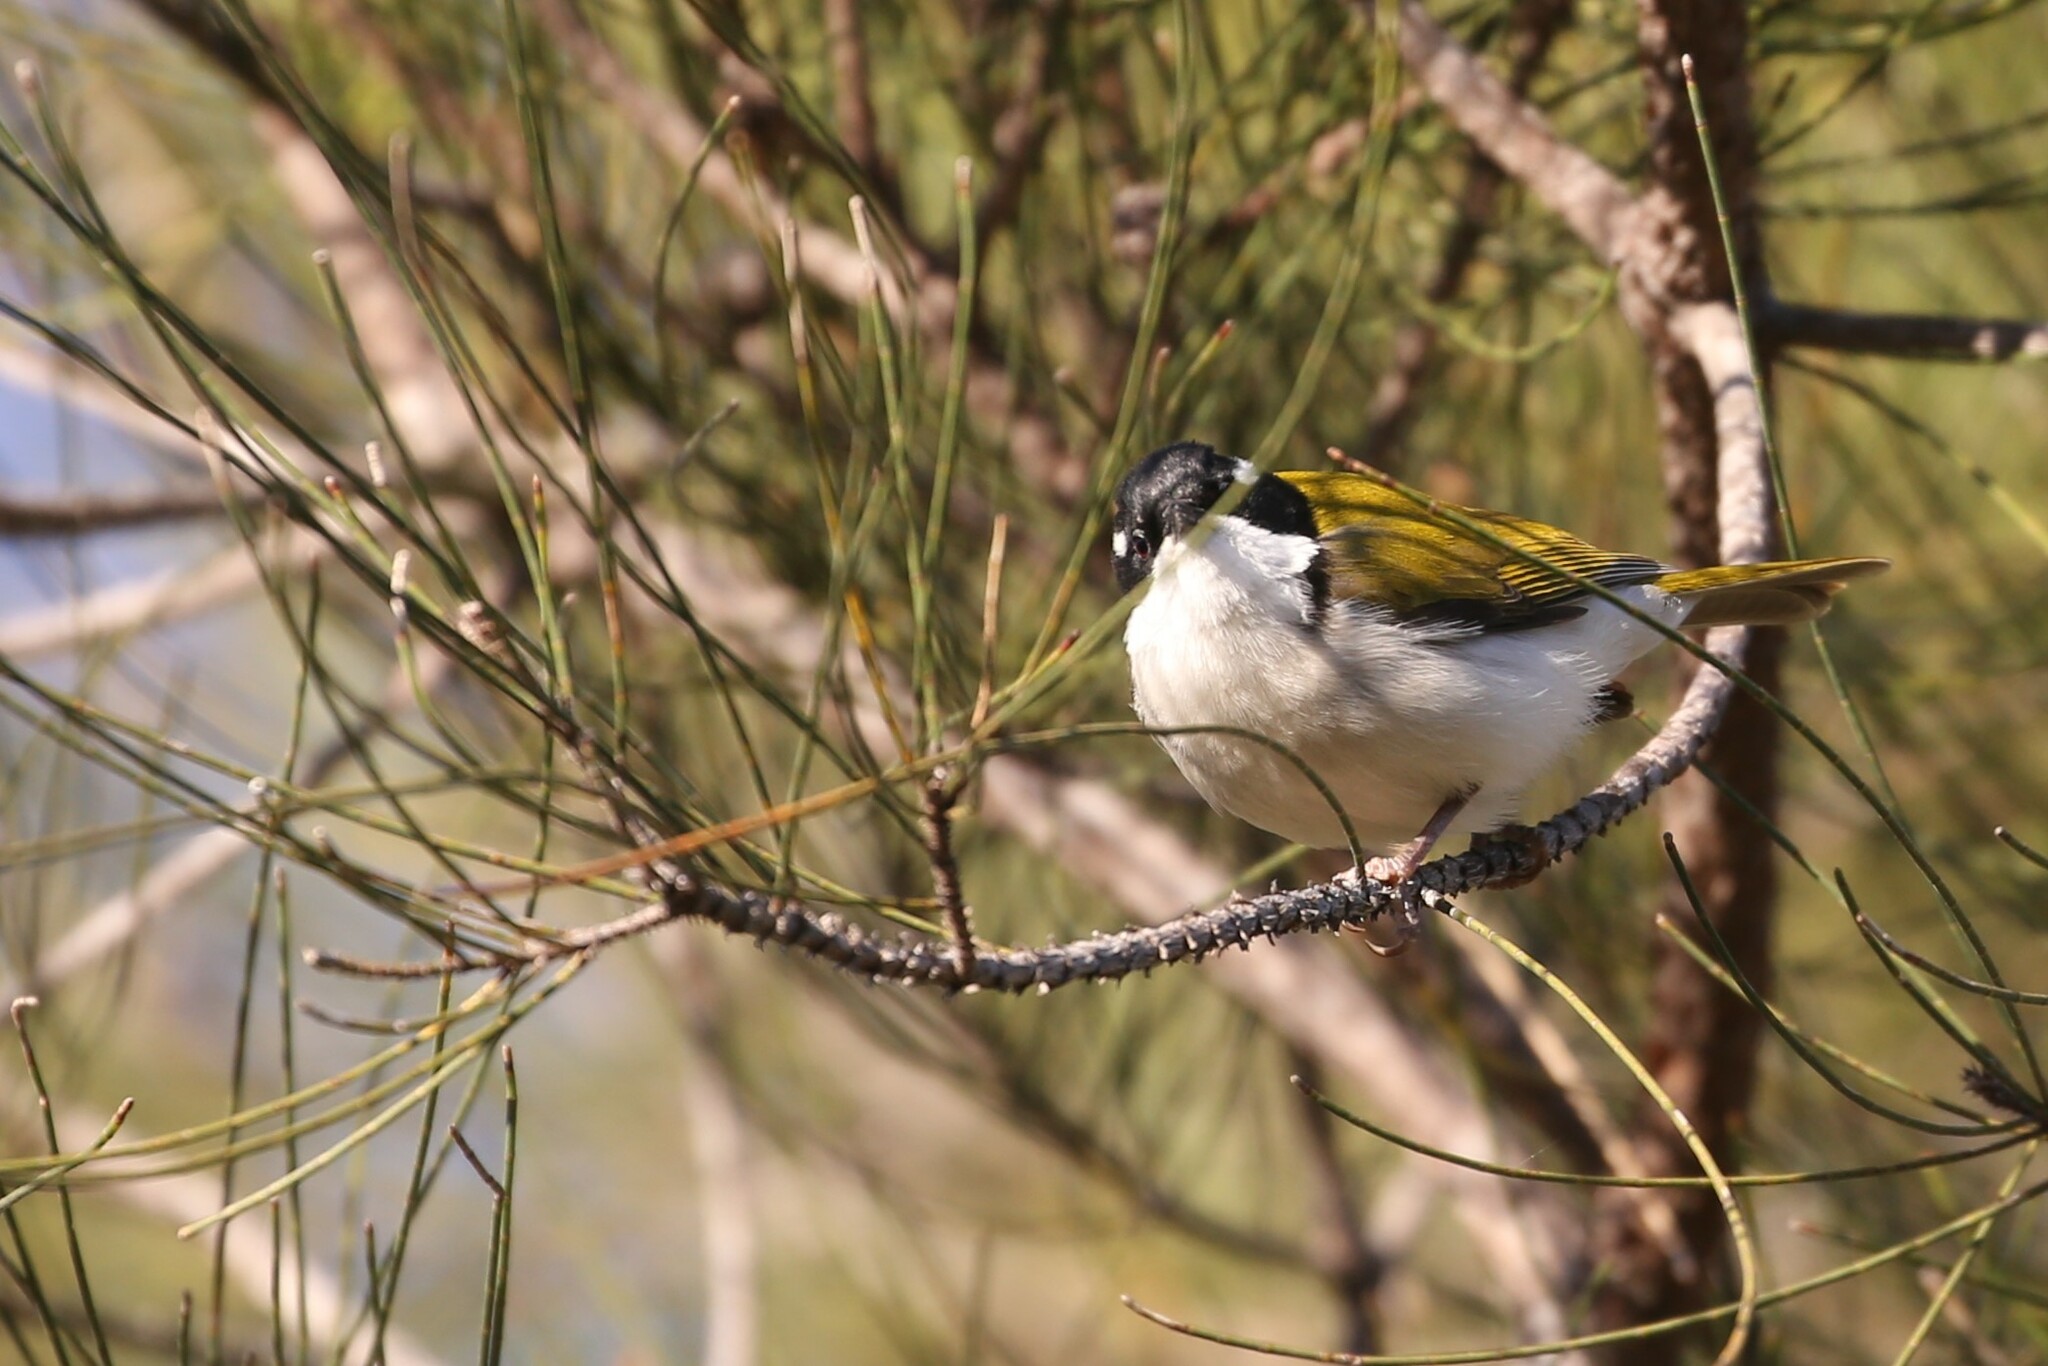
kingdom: Animalia
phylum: Chordata
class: Aves
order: Passeriformes
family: Meliphagidae
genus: Melithreptus
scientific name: Melithreptus albogularis
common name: White-throated honeyeater
